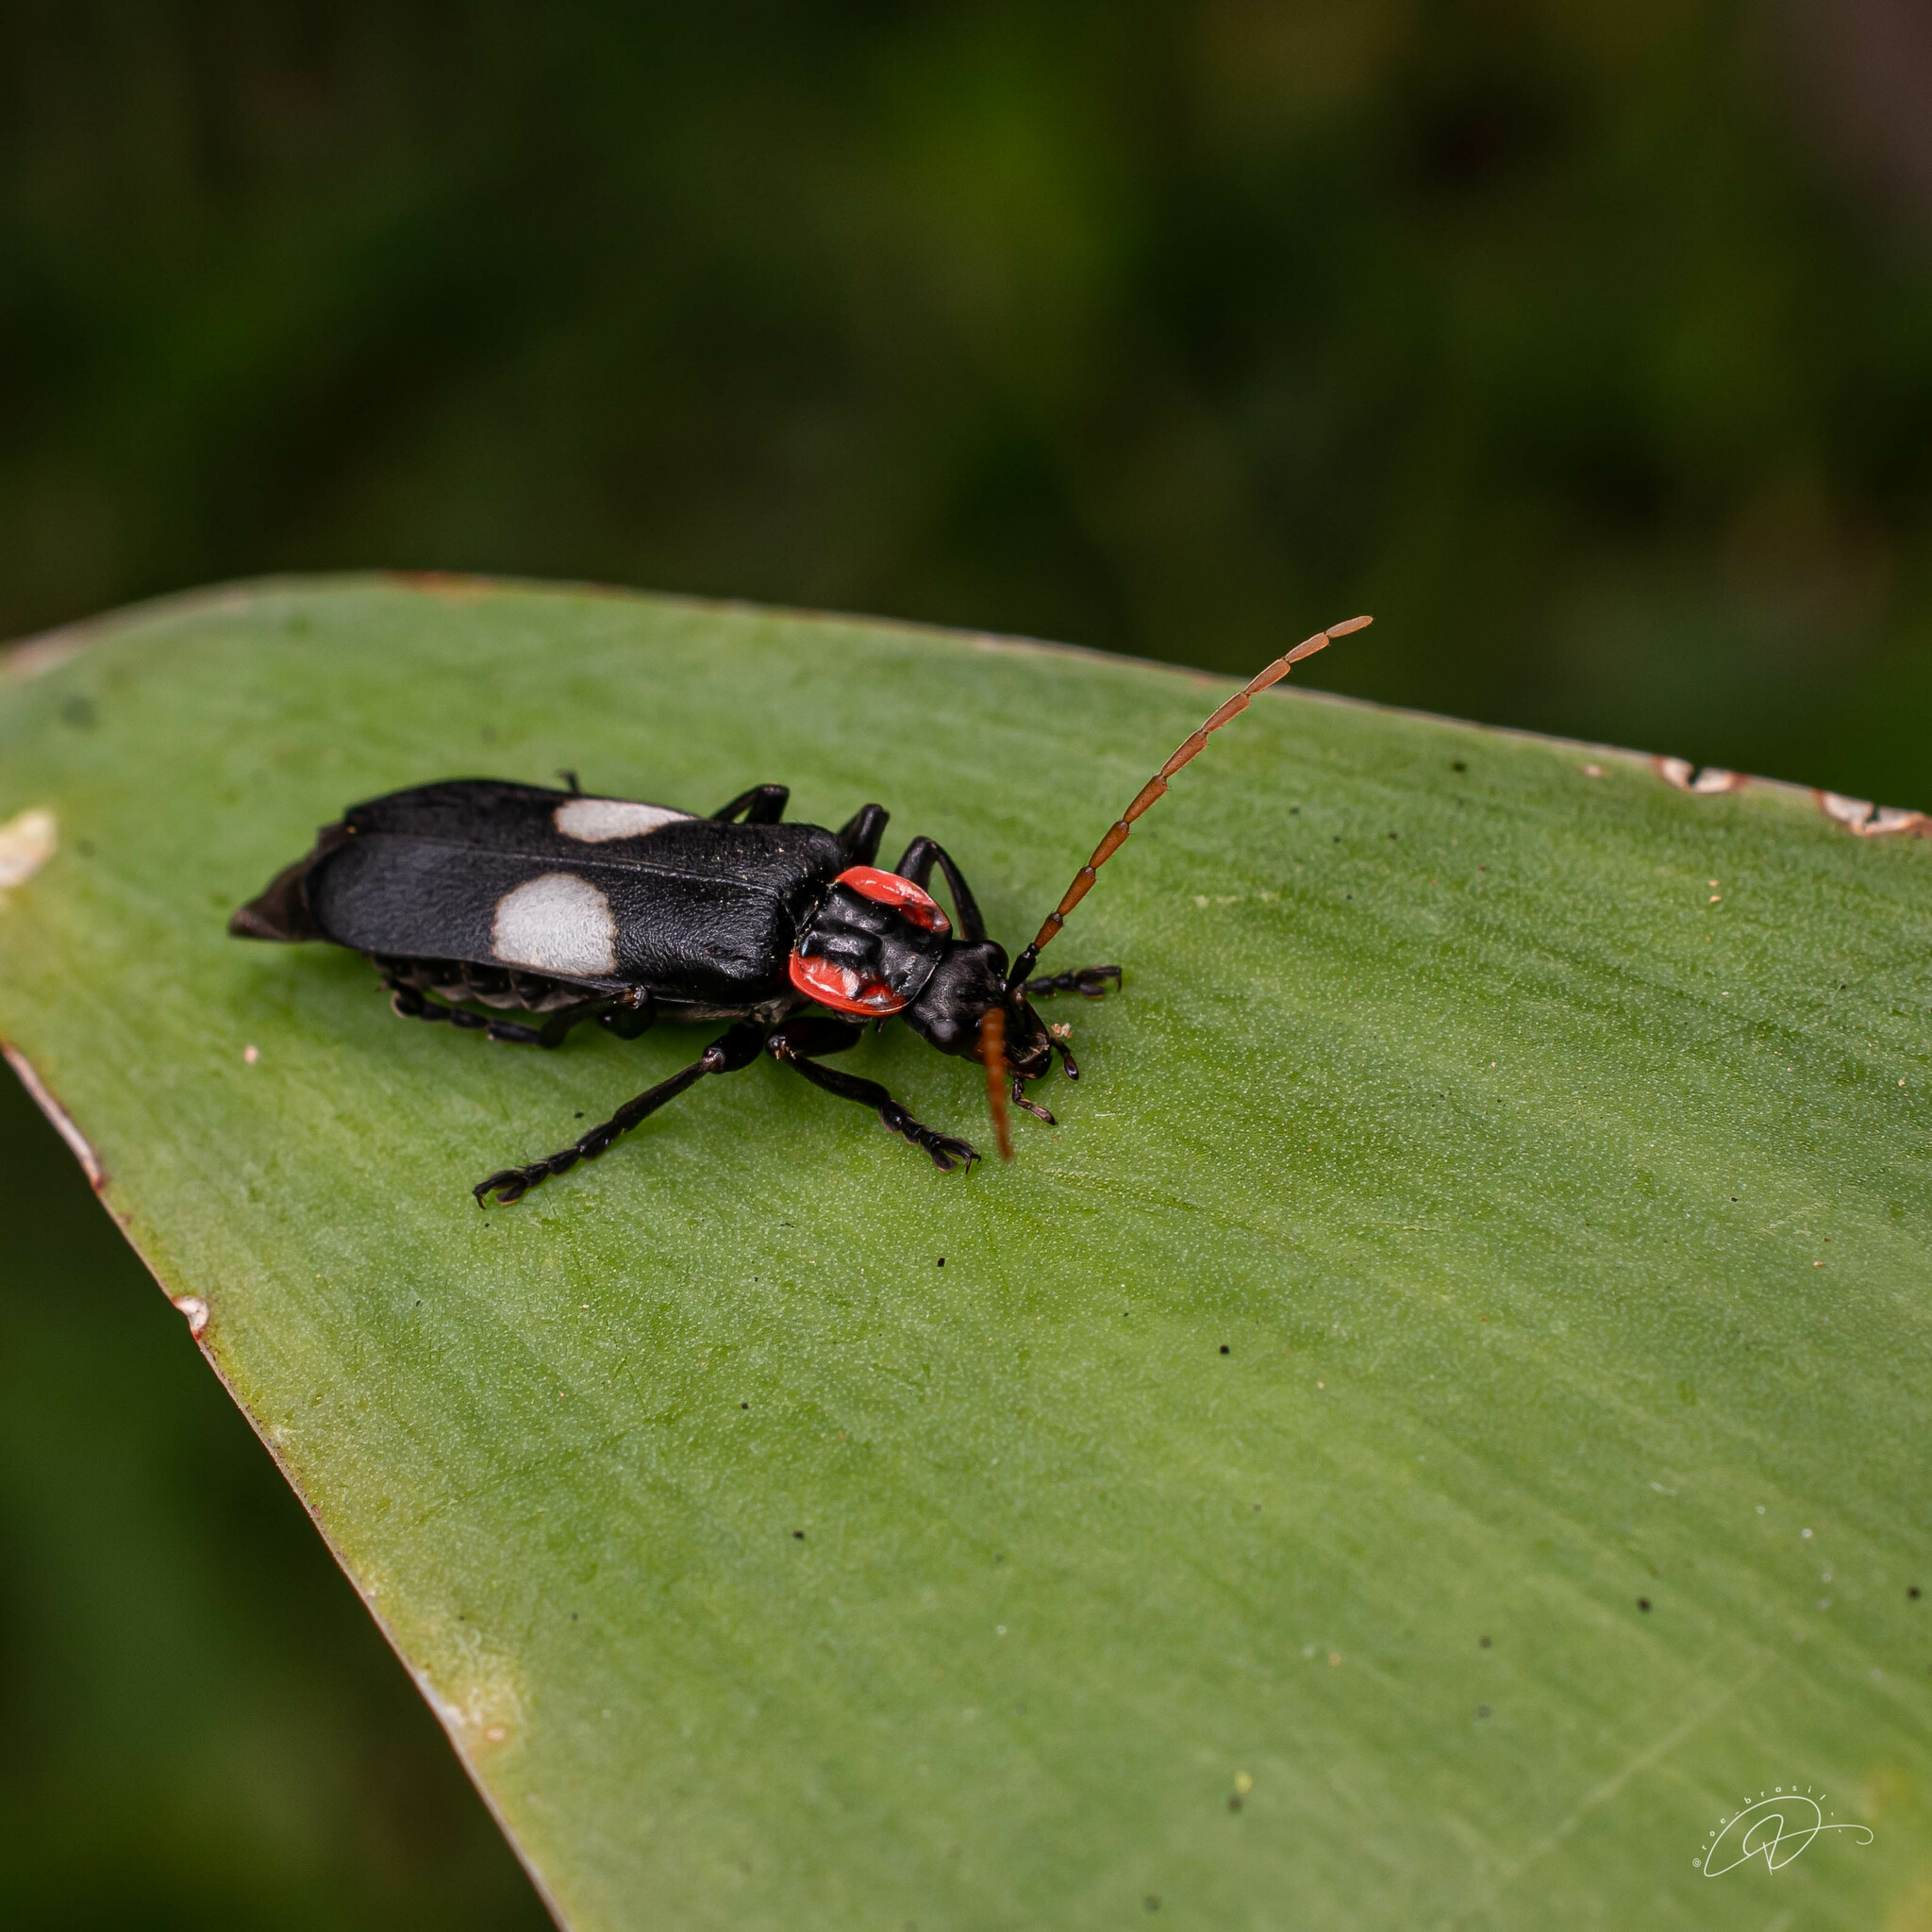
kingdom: Animalia
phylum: Arthropoda
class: Insecta
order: Coleoptera
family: Cantharidae
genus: Discodon
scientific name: Discodon tricolor
